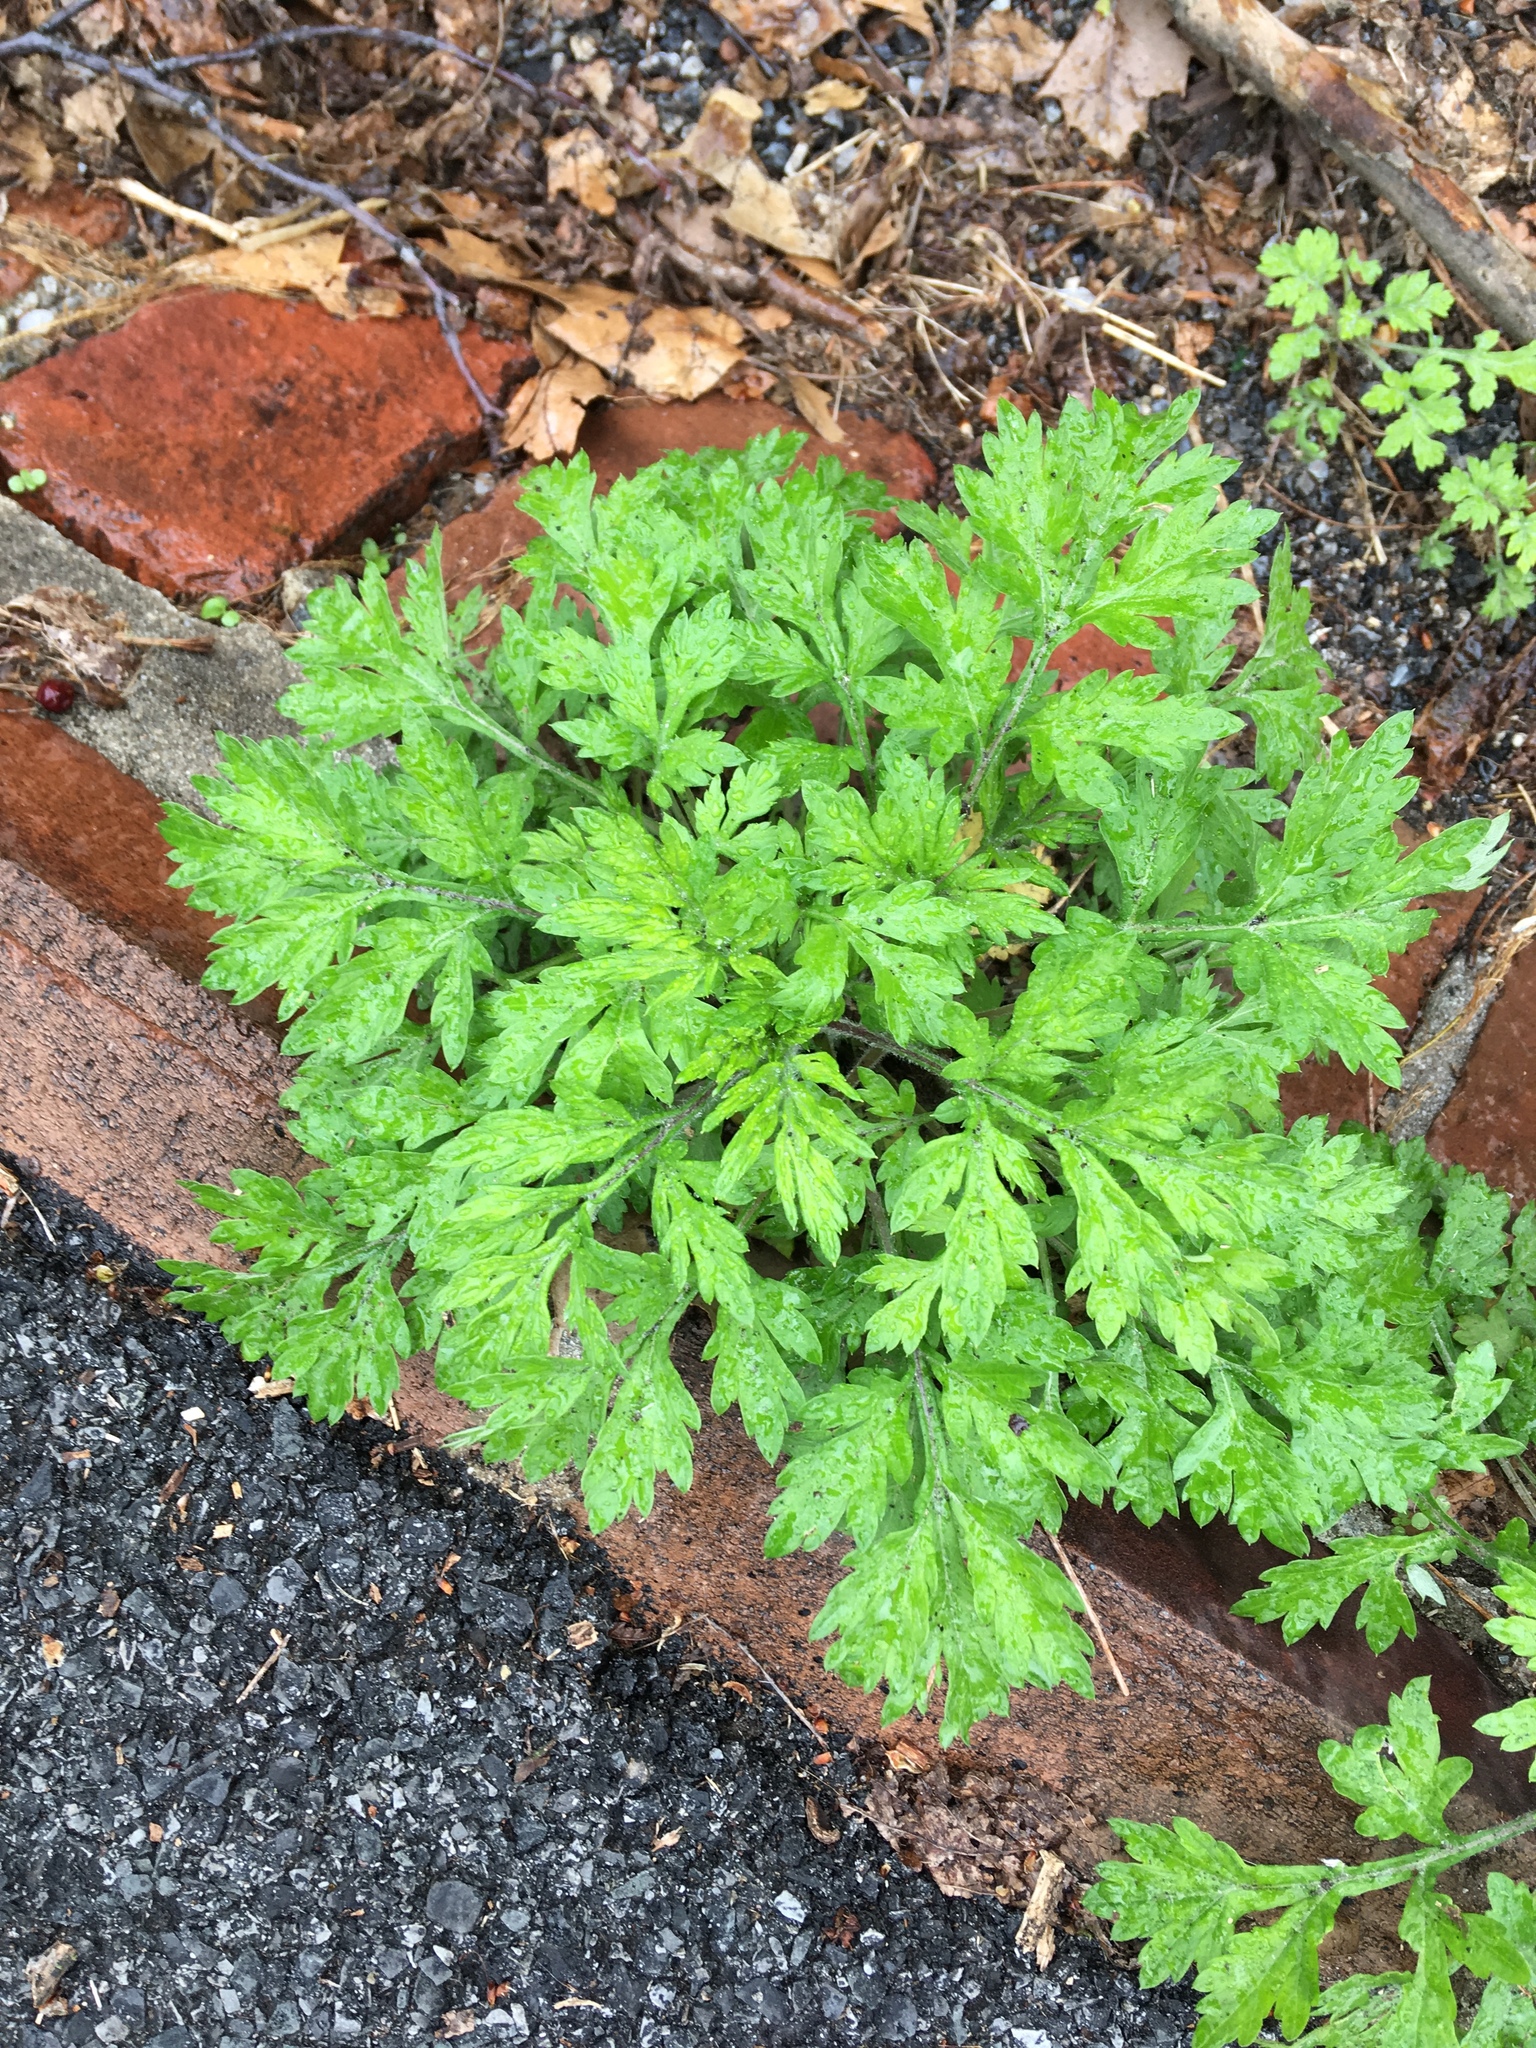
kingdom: Plantae
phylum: Tracheophyta
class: Magnoliopsida
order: Asterales
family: Asteraceae
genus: Artemisia
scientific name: Artemisia vulgaris
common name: Mugwort
